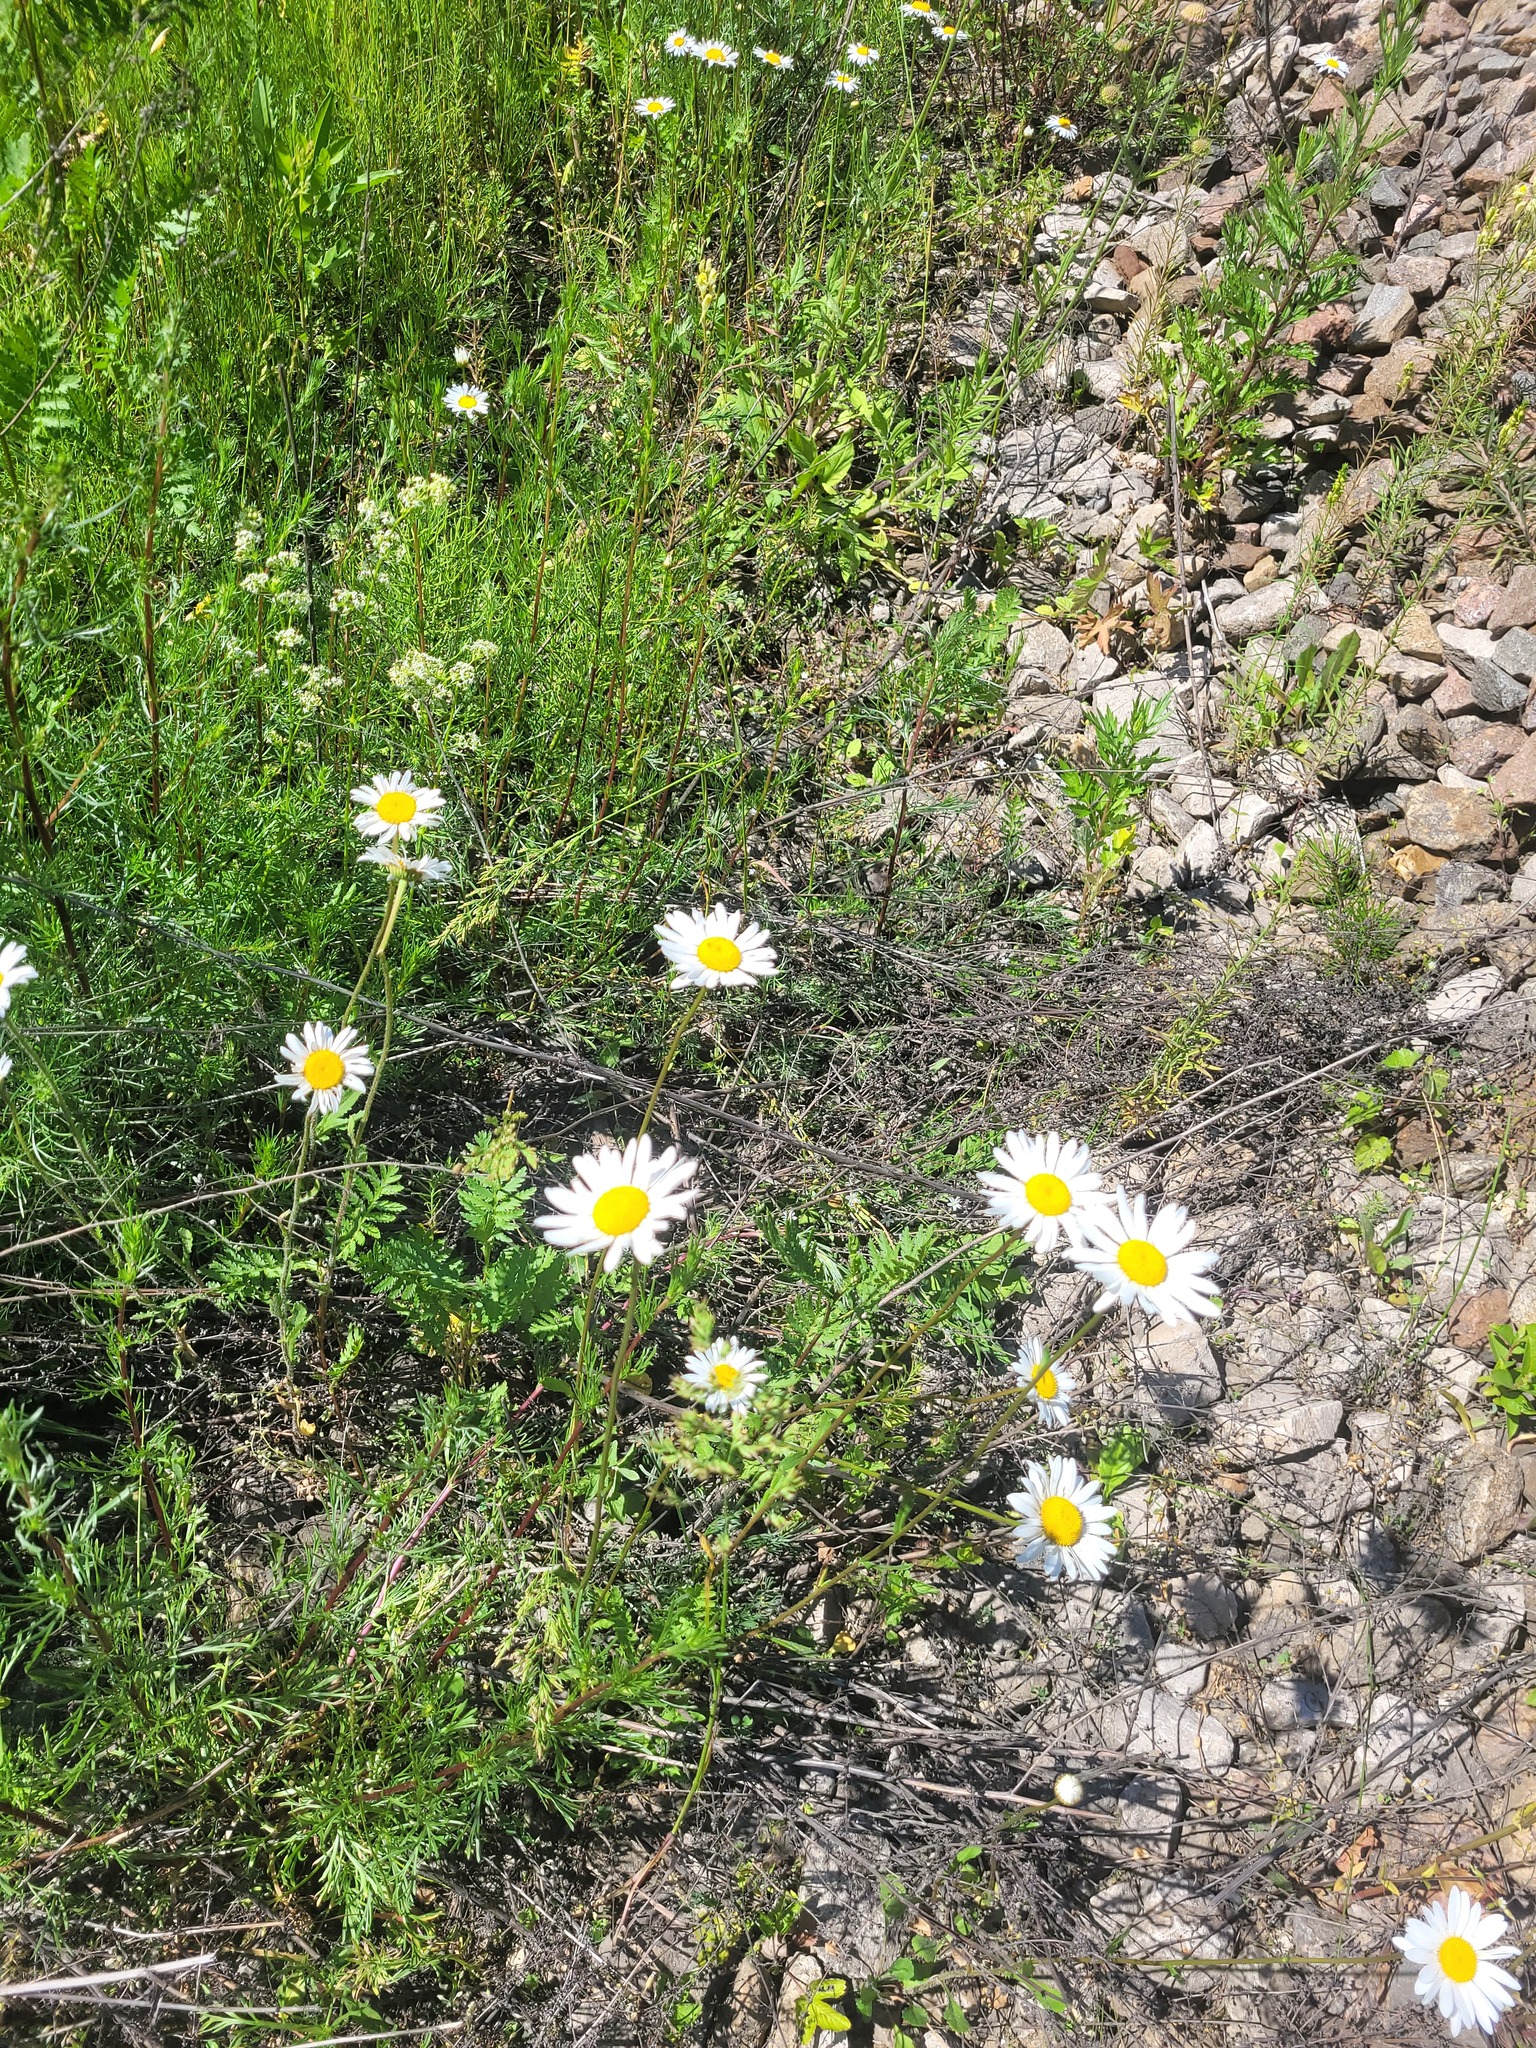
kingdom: Plantae
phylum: Tracheophyta
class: Magnoliopsida
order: Asterales
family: Asteraceae
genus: Leucanthemum
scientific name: Leucanthemum vulgare
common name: Oxeye daisy
